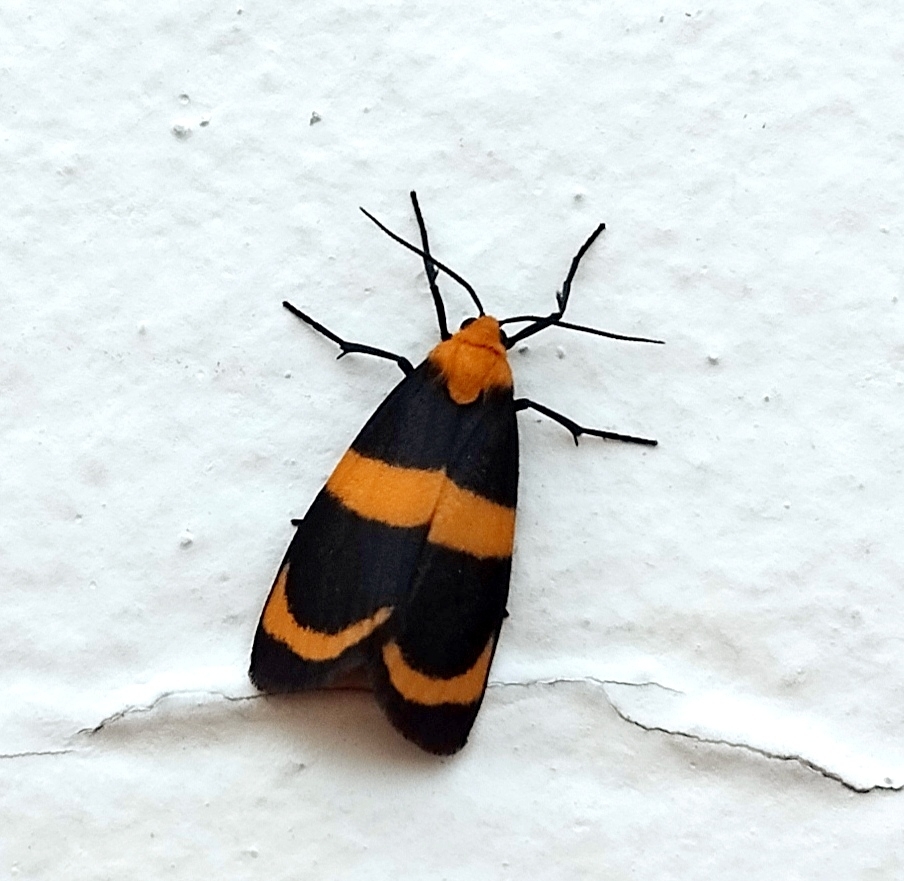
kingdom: Animalia
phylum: Arthropoda
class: Insecta
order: Lepidoptera
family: Erebidae
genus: Eudesmia
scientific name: Eudesmia menea
